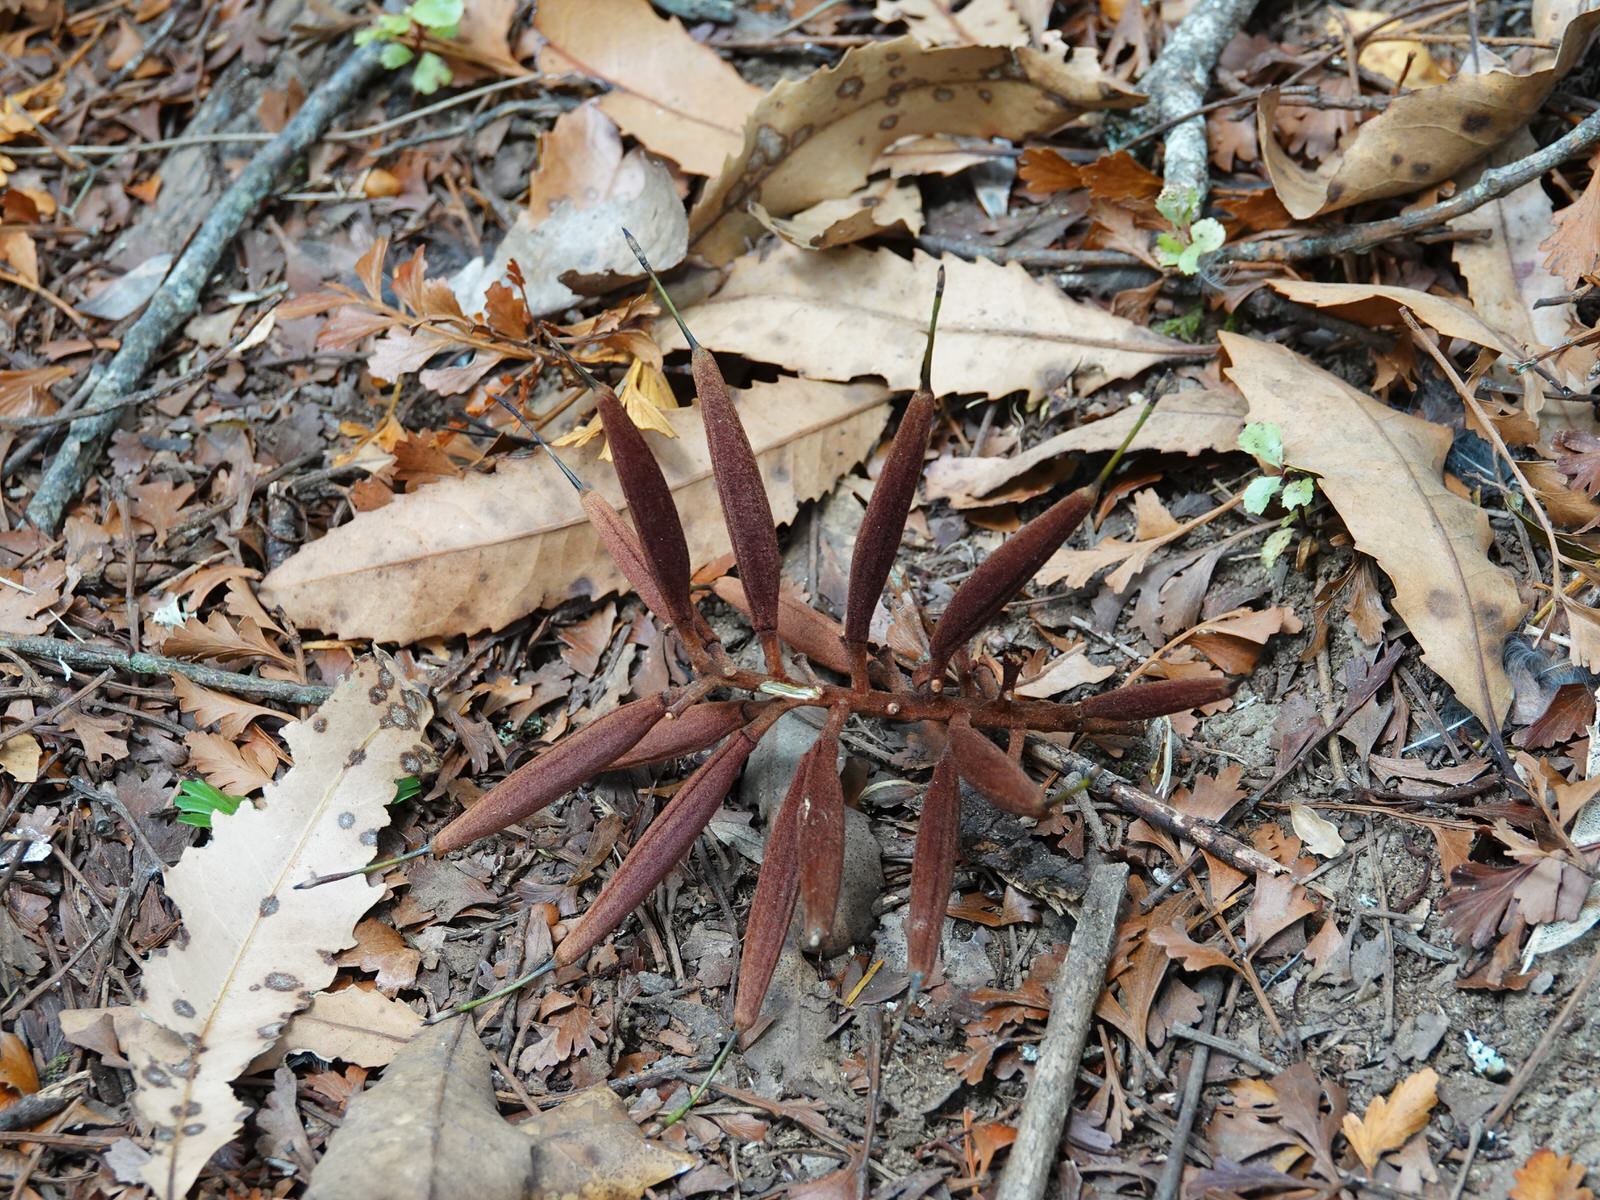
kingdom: Plantae
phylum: Tracheophyta
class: Magnoliopsida
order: Proteales
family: Proteaceae
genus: Knightia
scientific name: Knightia excelsa
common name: New zealand-honeysuckle
